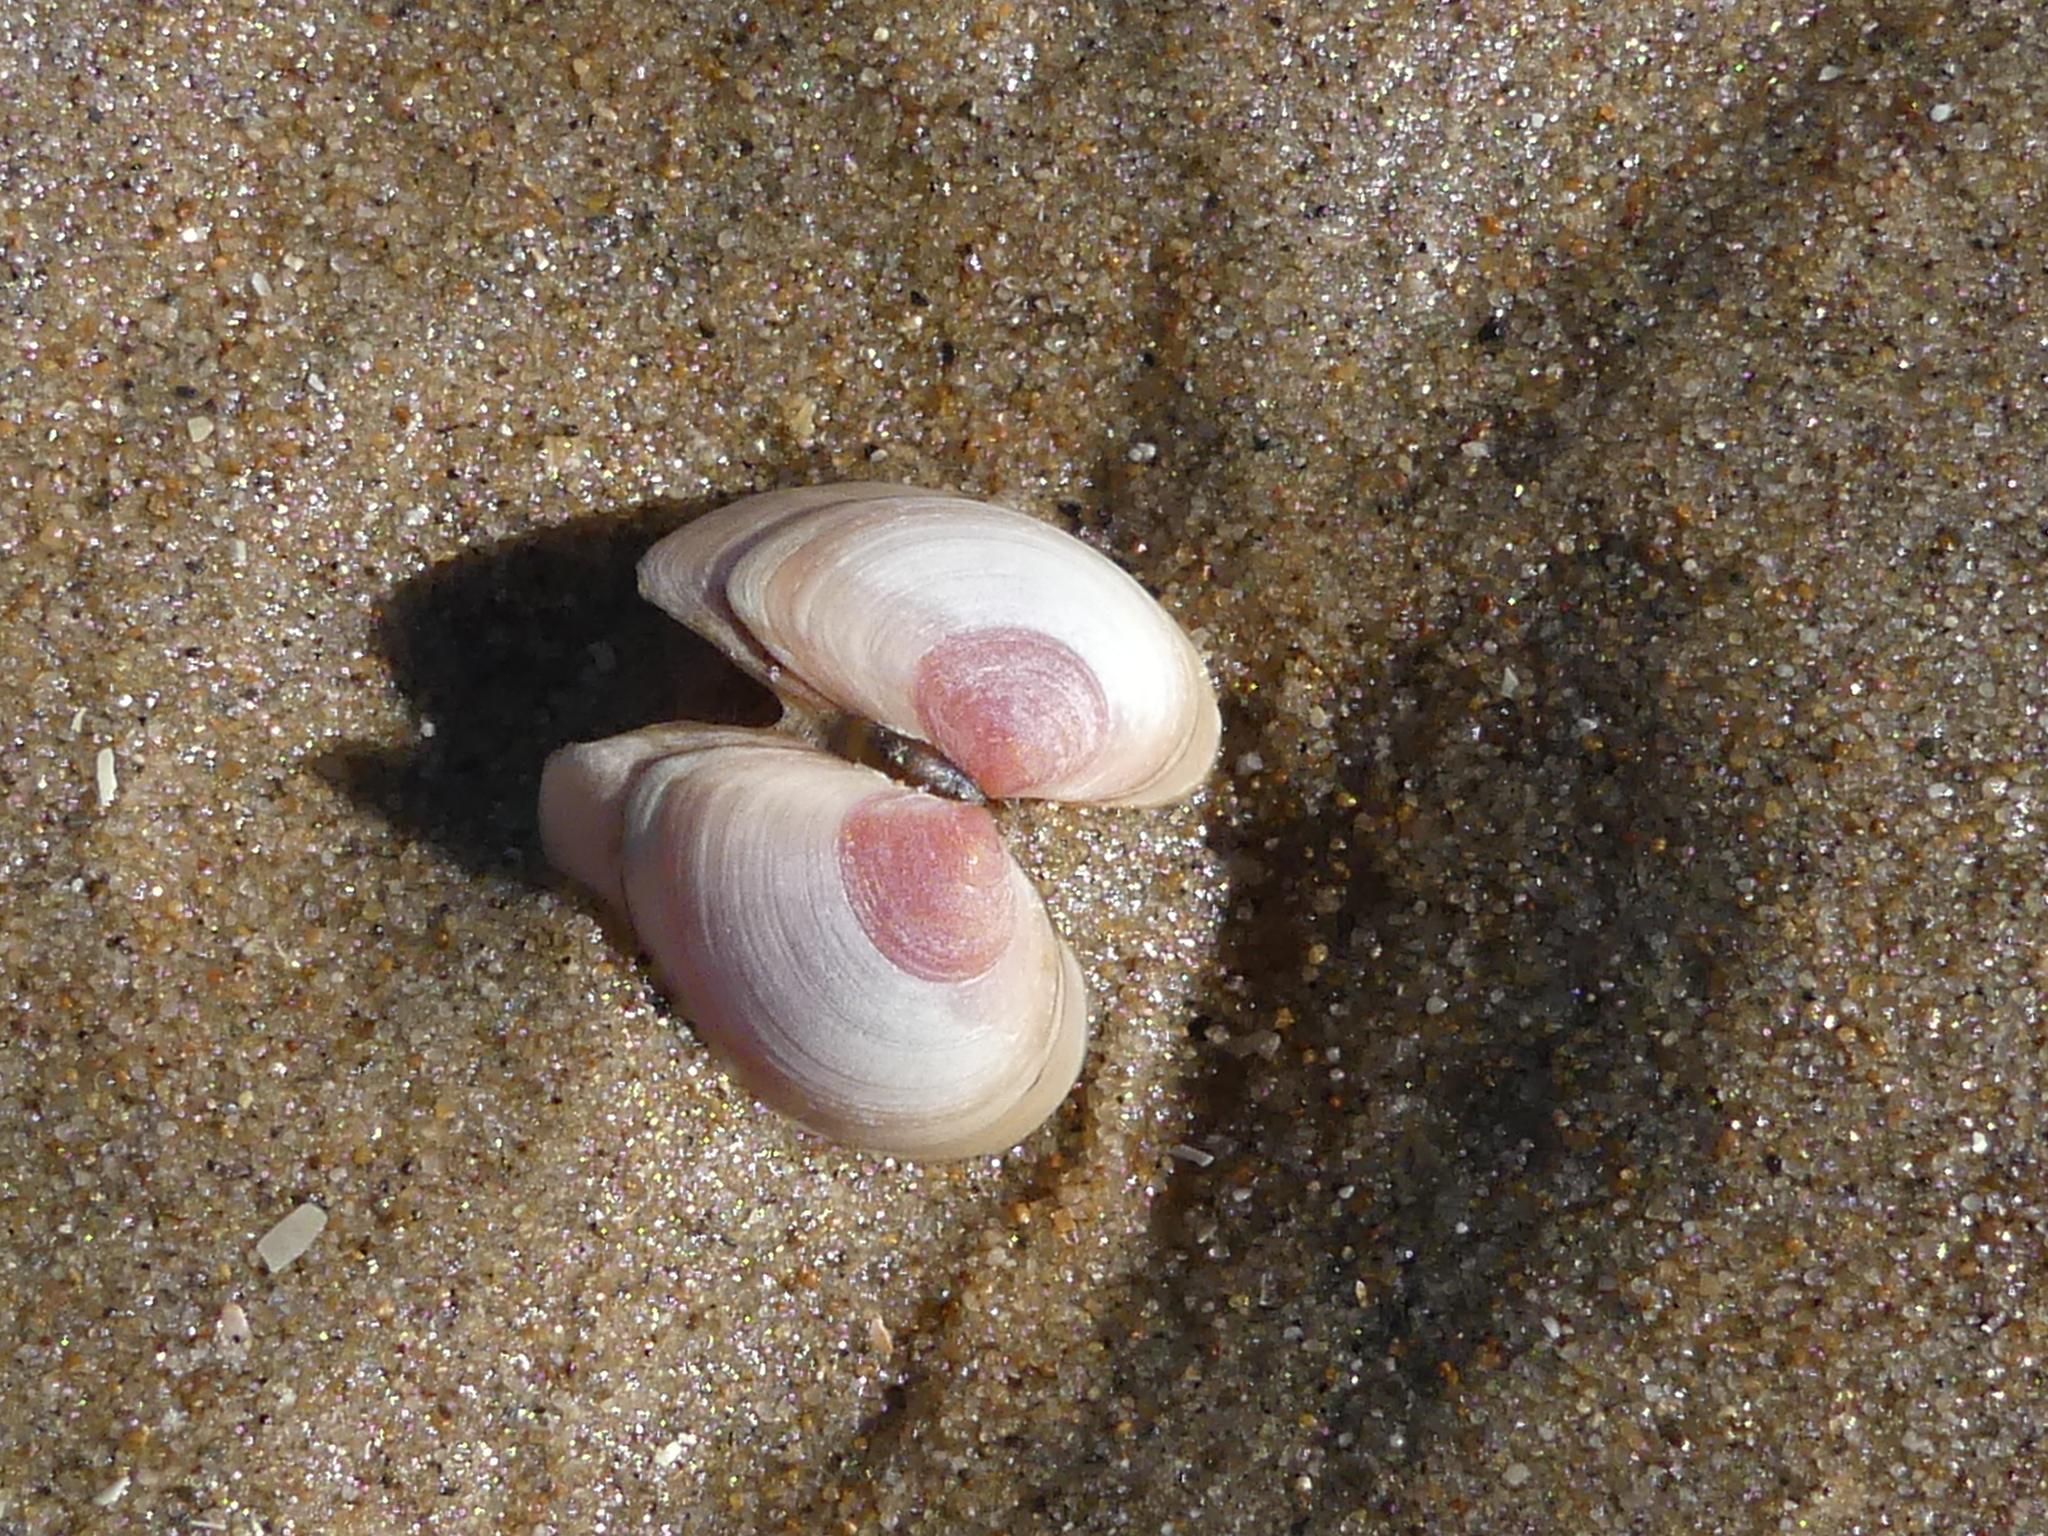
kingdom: Animalia
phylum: Mollusca
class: Bivalvia
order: Cardiida
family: Tellinidae
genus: Macoma
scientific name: Macoma balthica
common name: Baltic tellin
